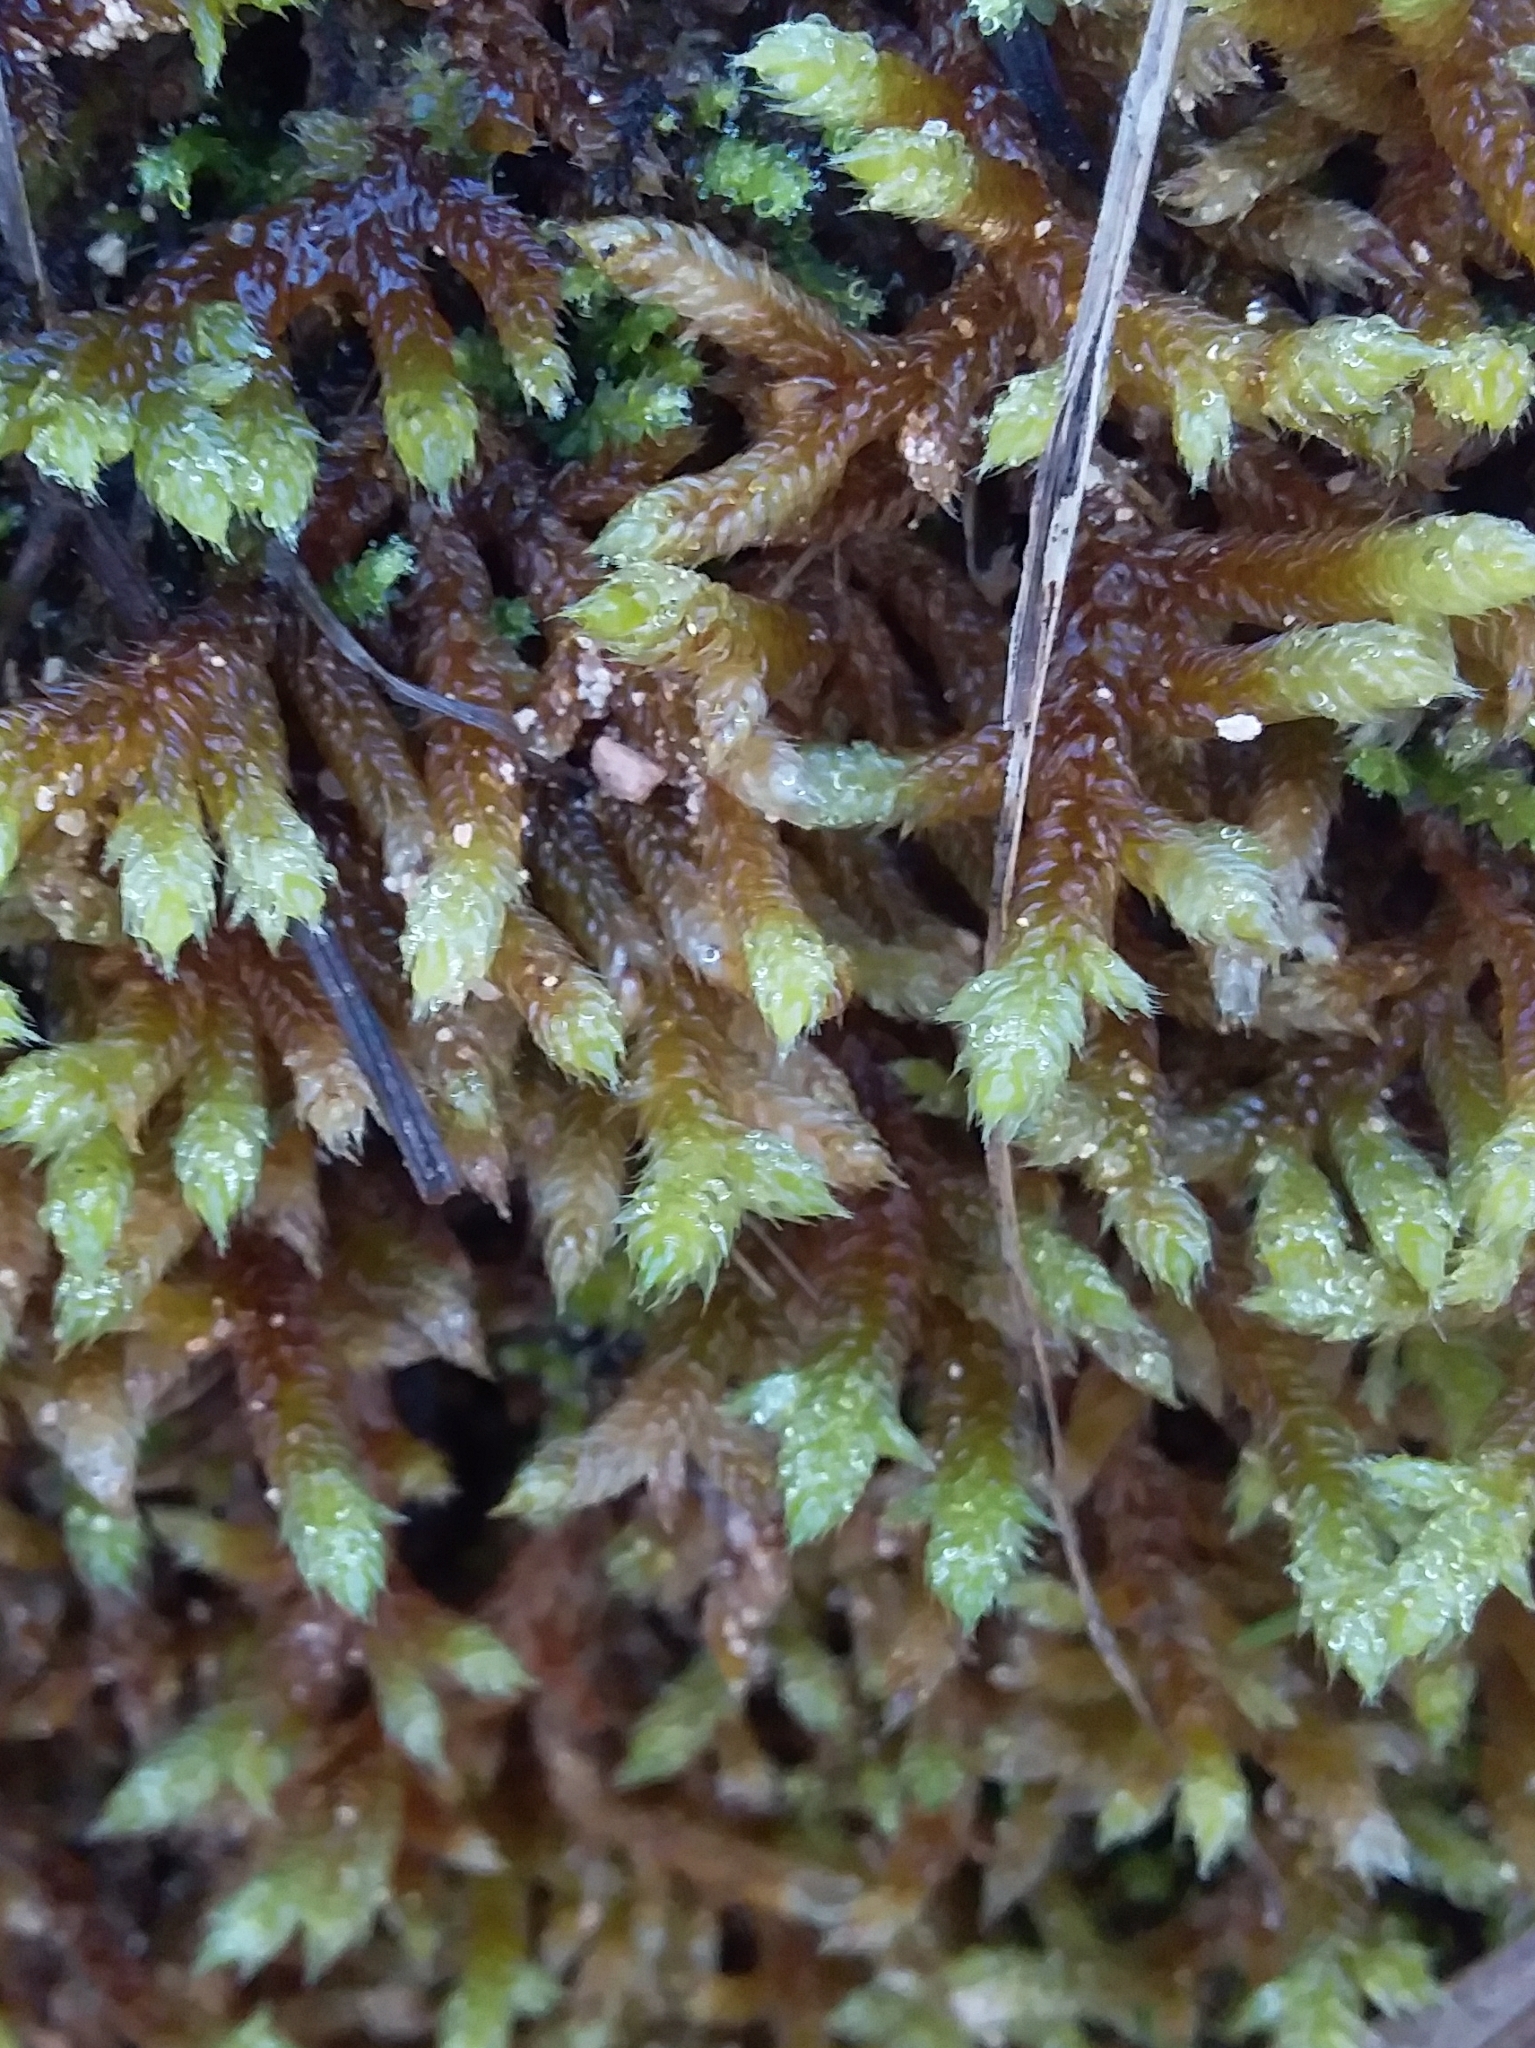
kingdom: Plantae
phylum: Bryophyta
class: Bryopsida
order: Hypnales
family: Hypnaceae
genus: Hypnum
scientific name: Hypnum cupressiforme
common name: Cypress-leaved plait-moss
